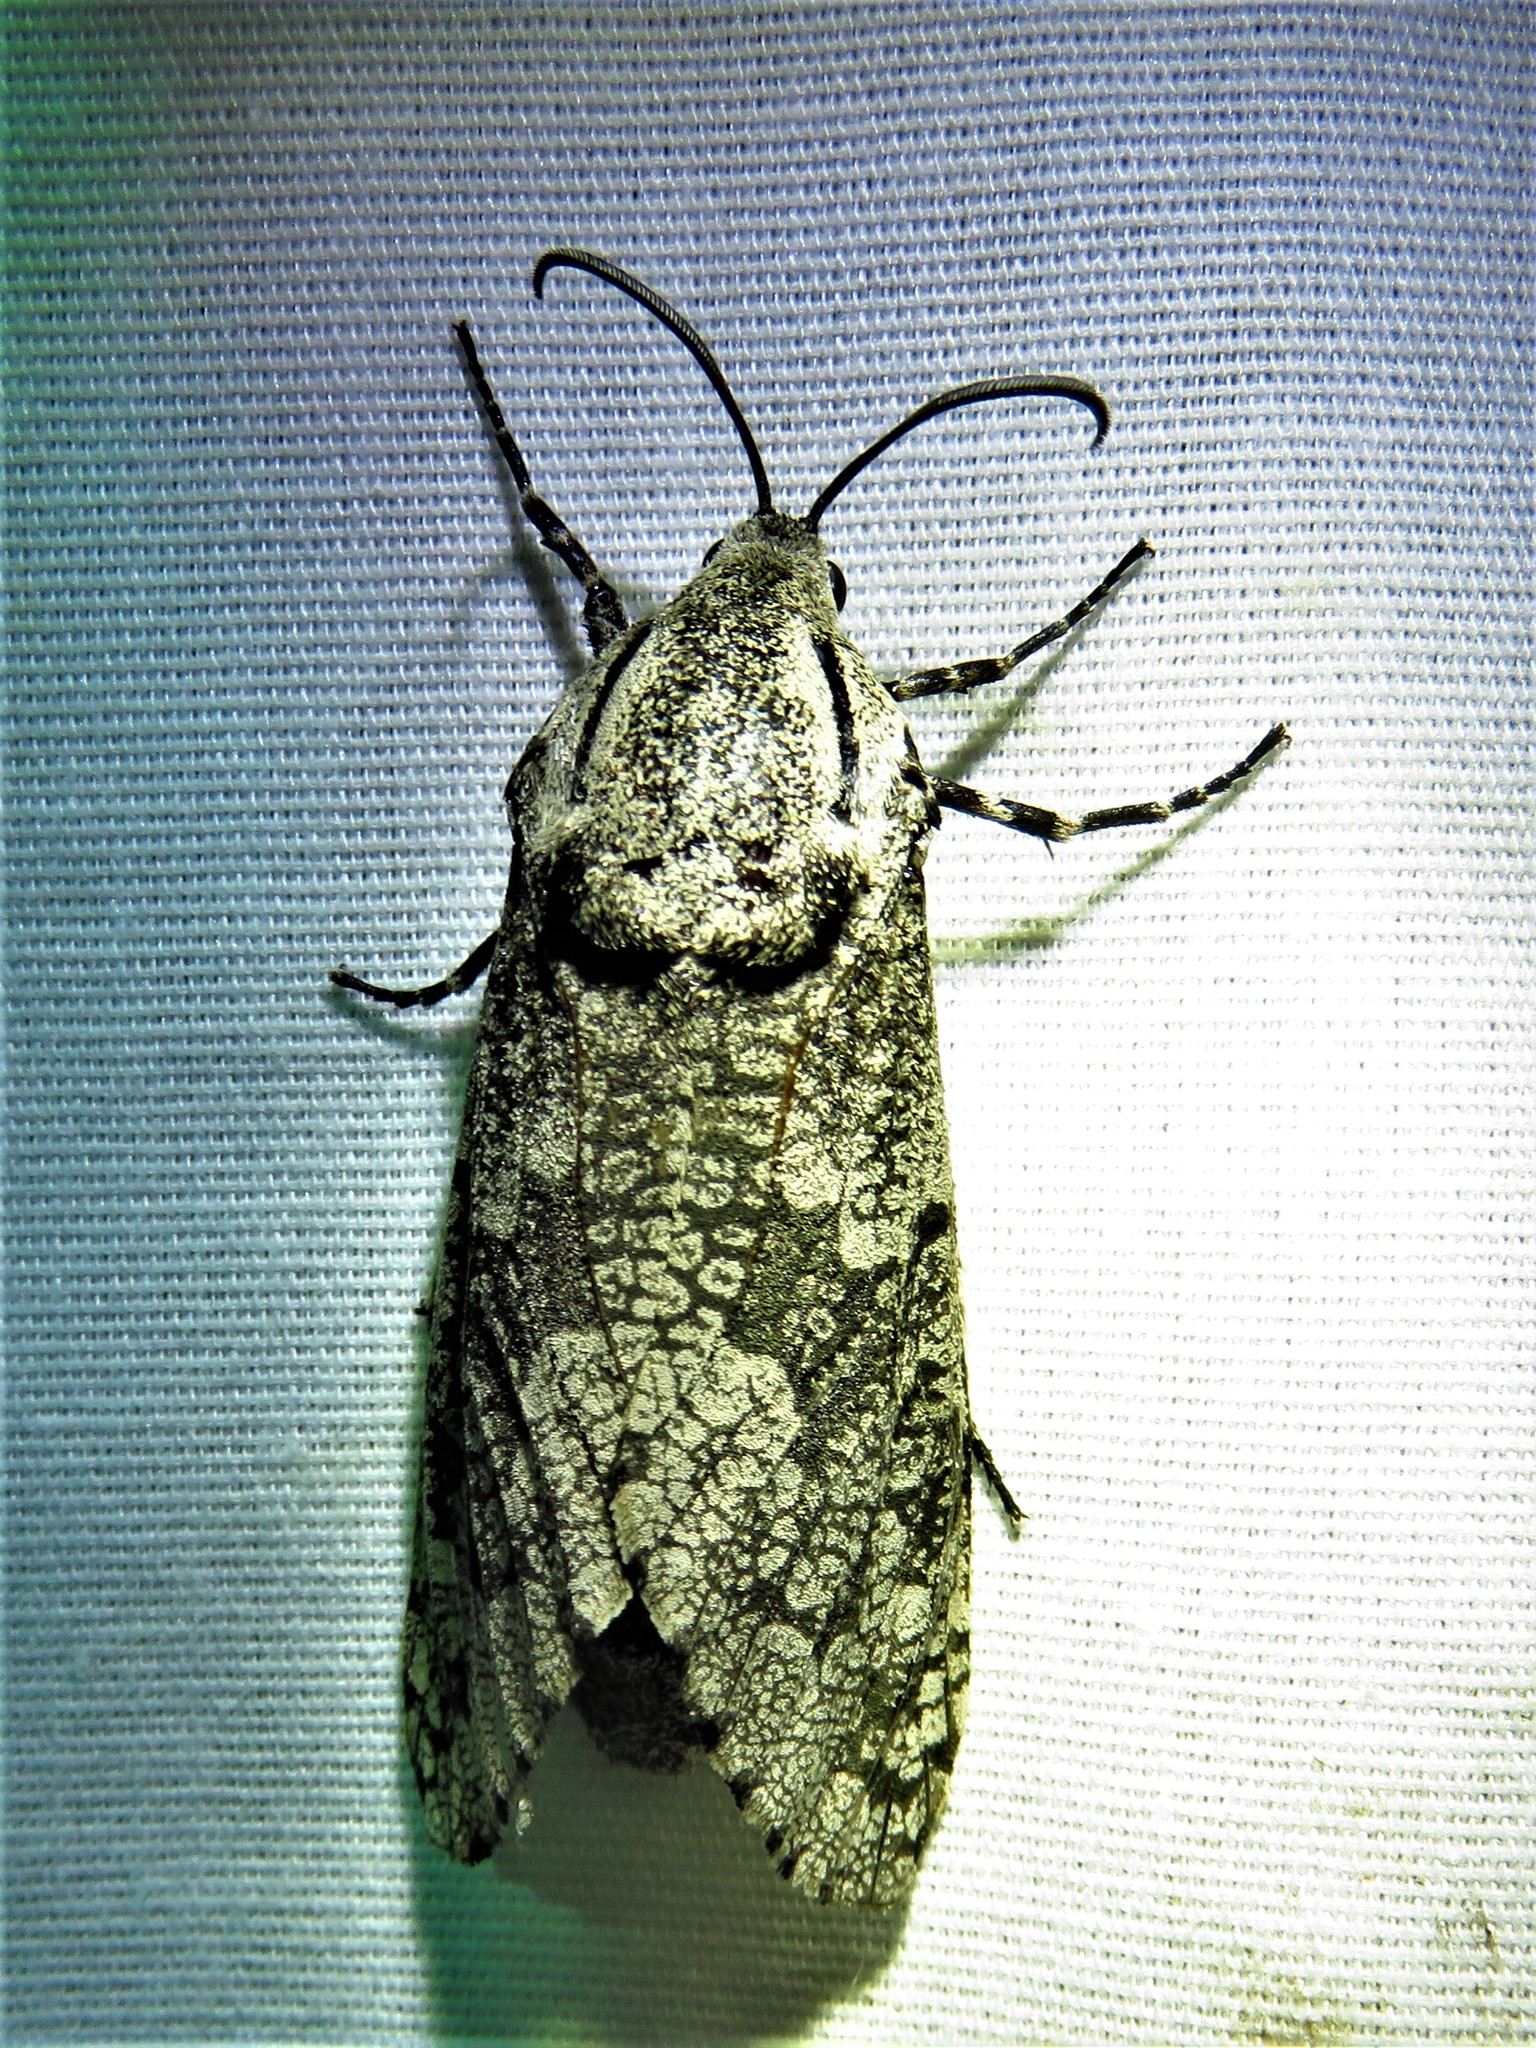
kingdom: Animalia
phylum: Arthropoda
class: Insecta
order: Lepidoptera
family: Cossidae
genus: Prionoxystus
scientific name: Prionoxystus robiniae
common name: Carpenterworm
